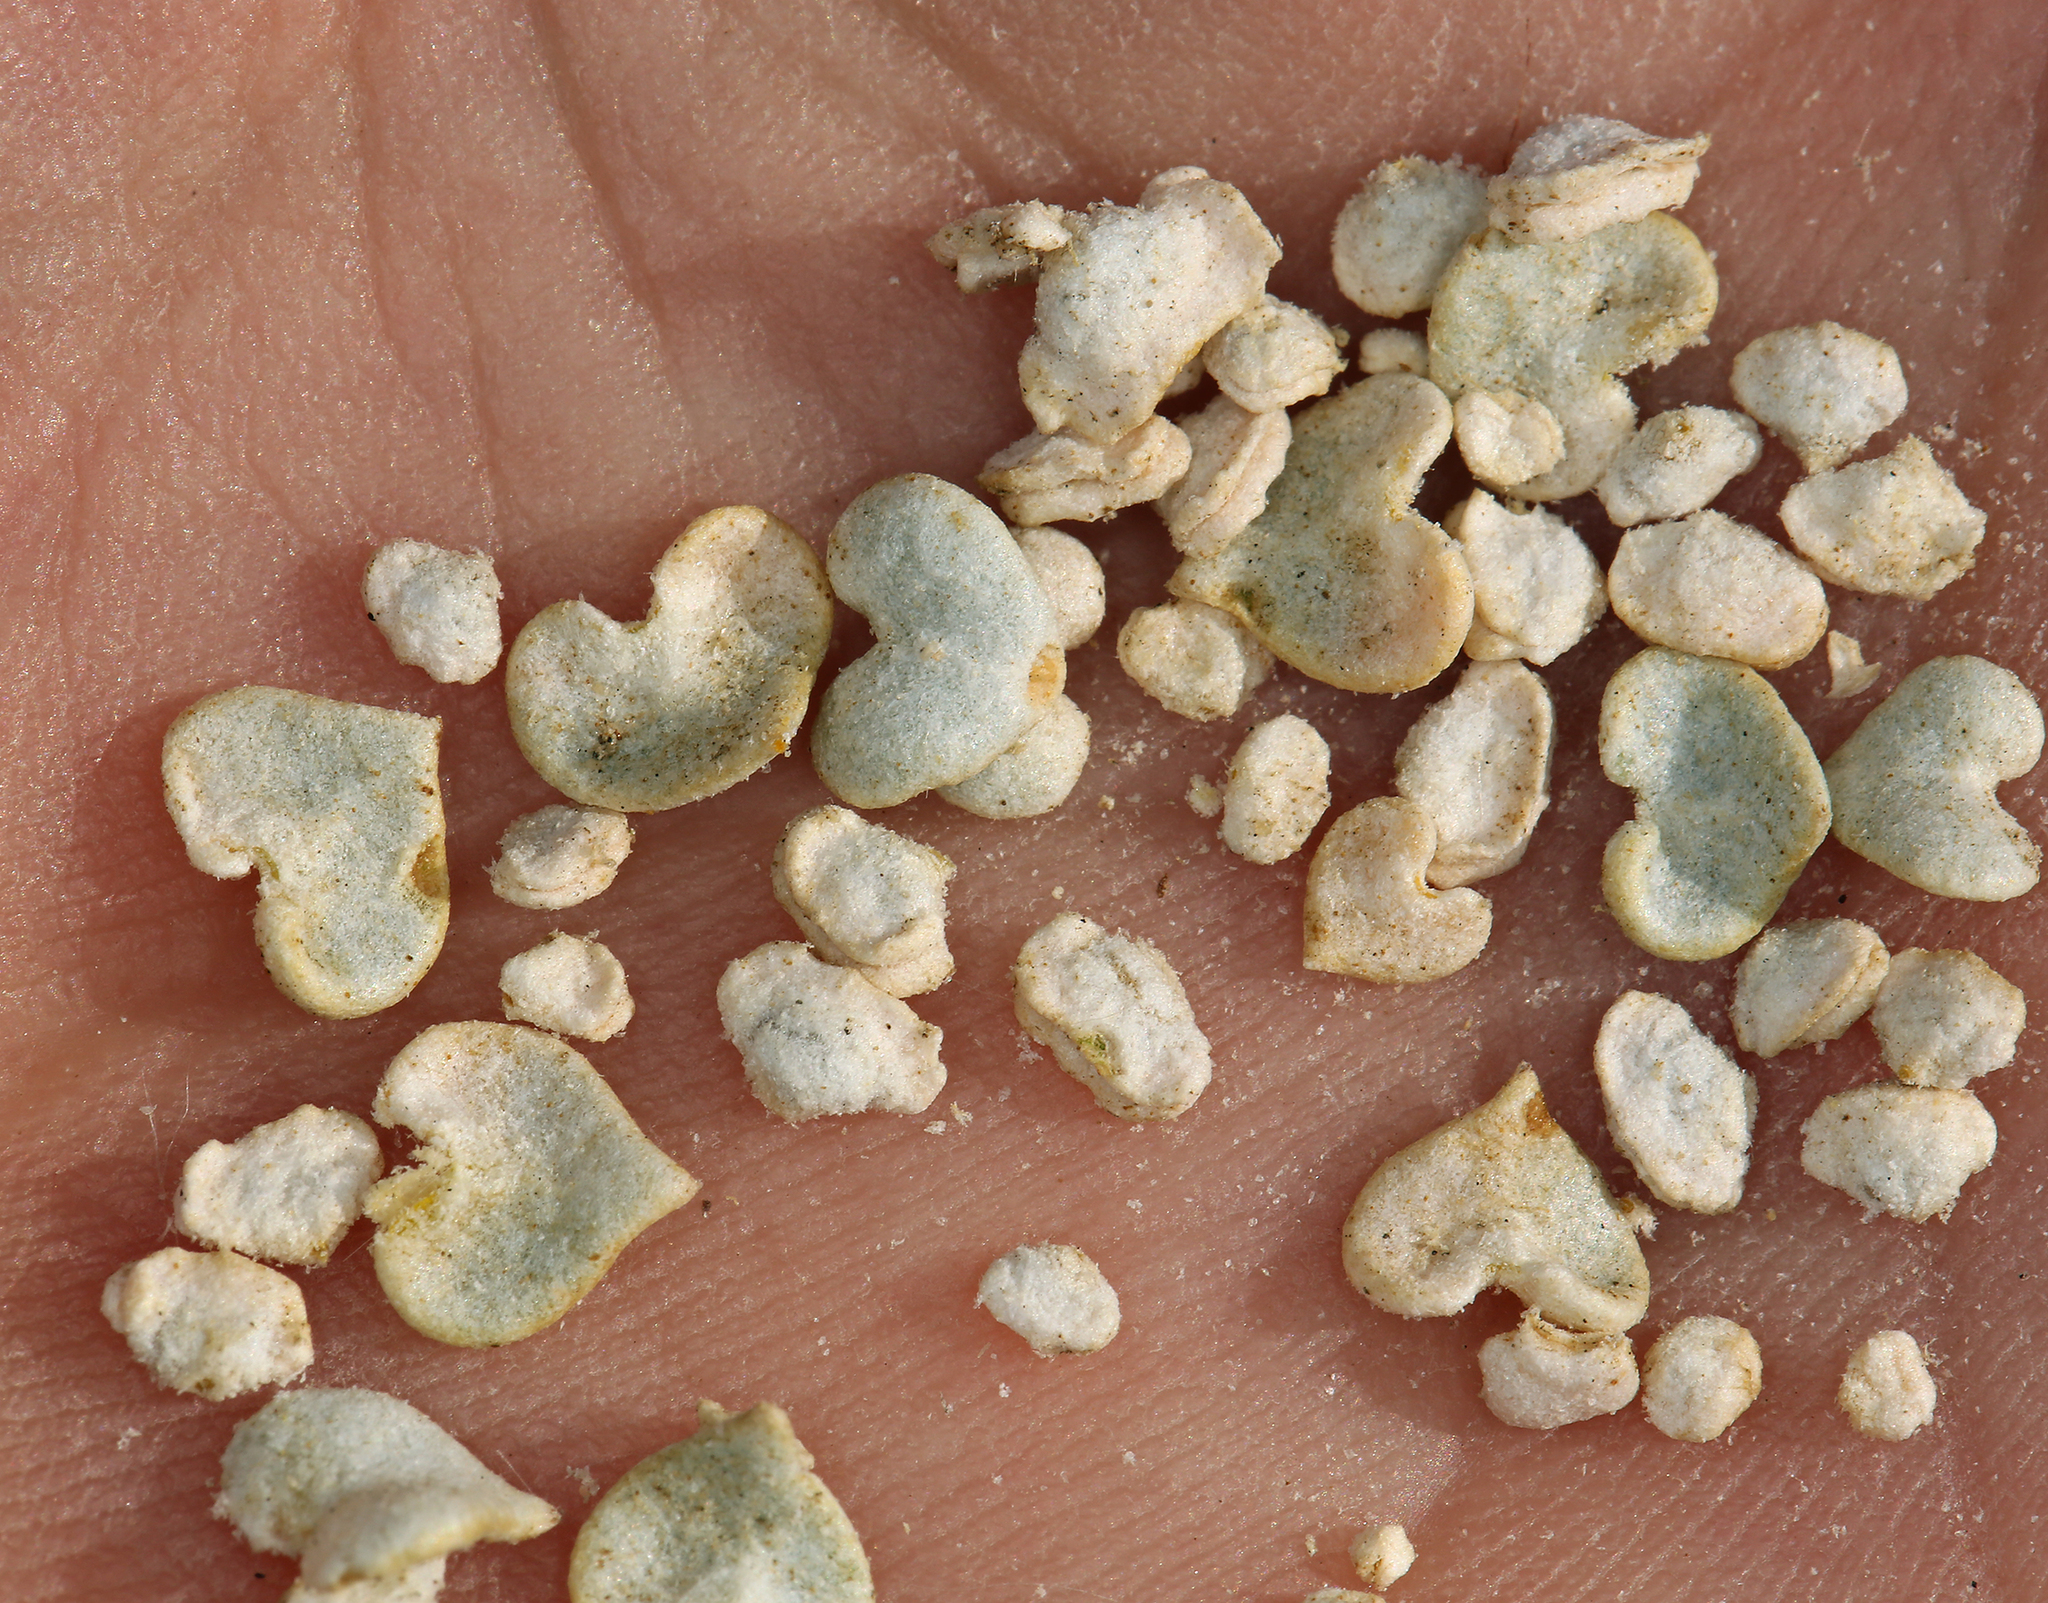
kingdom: Plantae
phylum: Tracheophyta
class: Magnoliopsida
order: Caryophyllales
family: Amaranthaceae
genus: Atriplex
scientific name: Atriplex parryi
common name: Parry's saltbush
